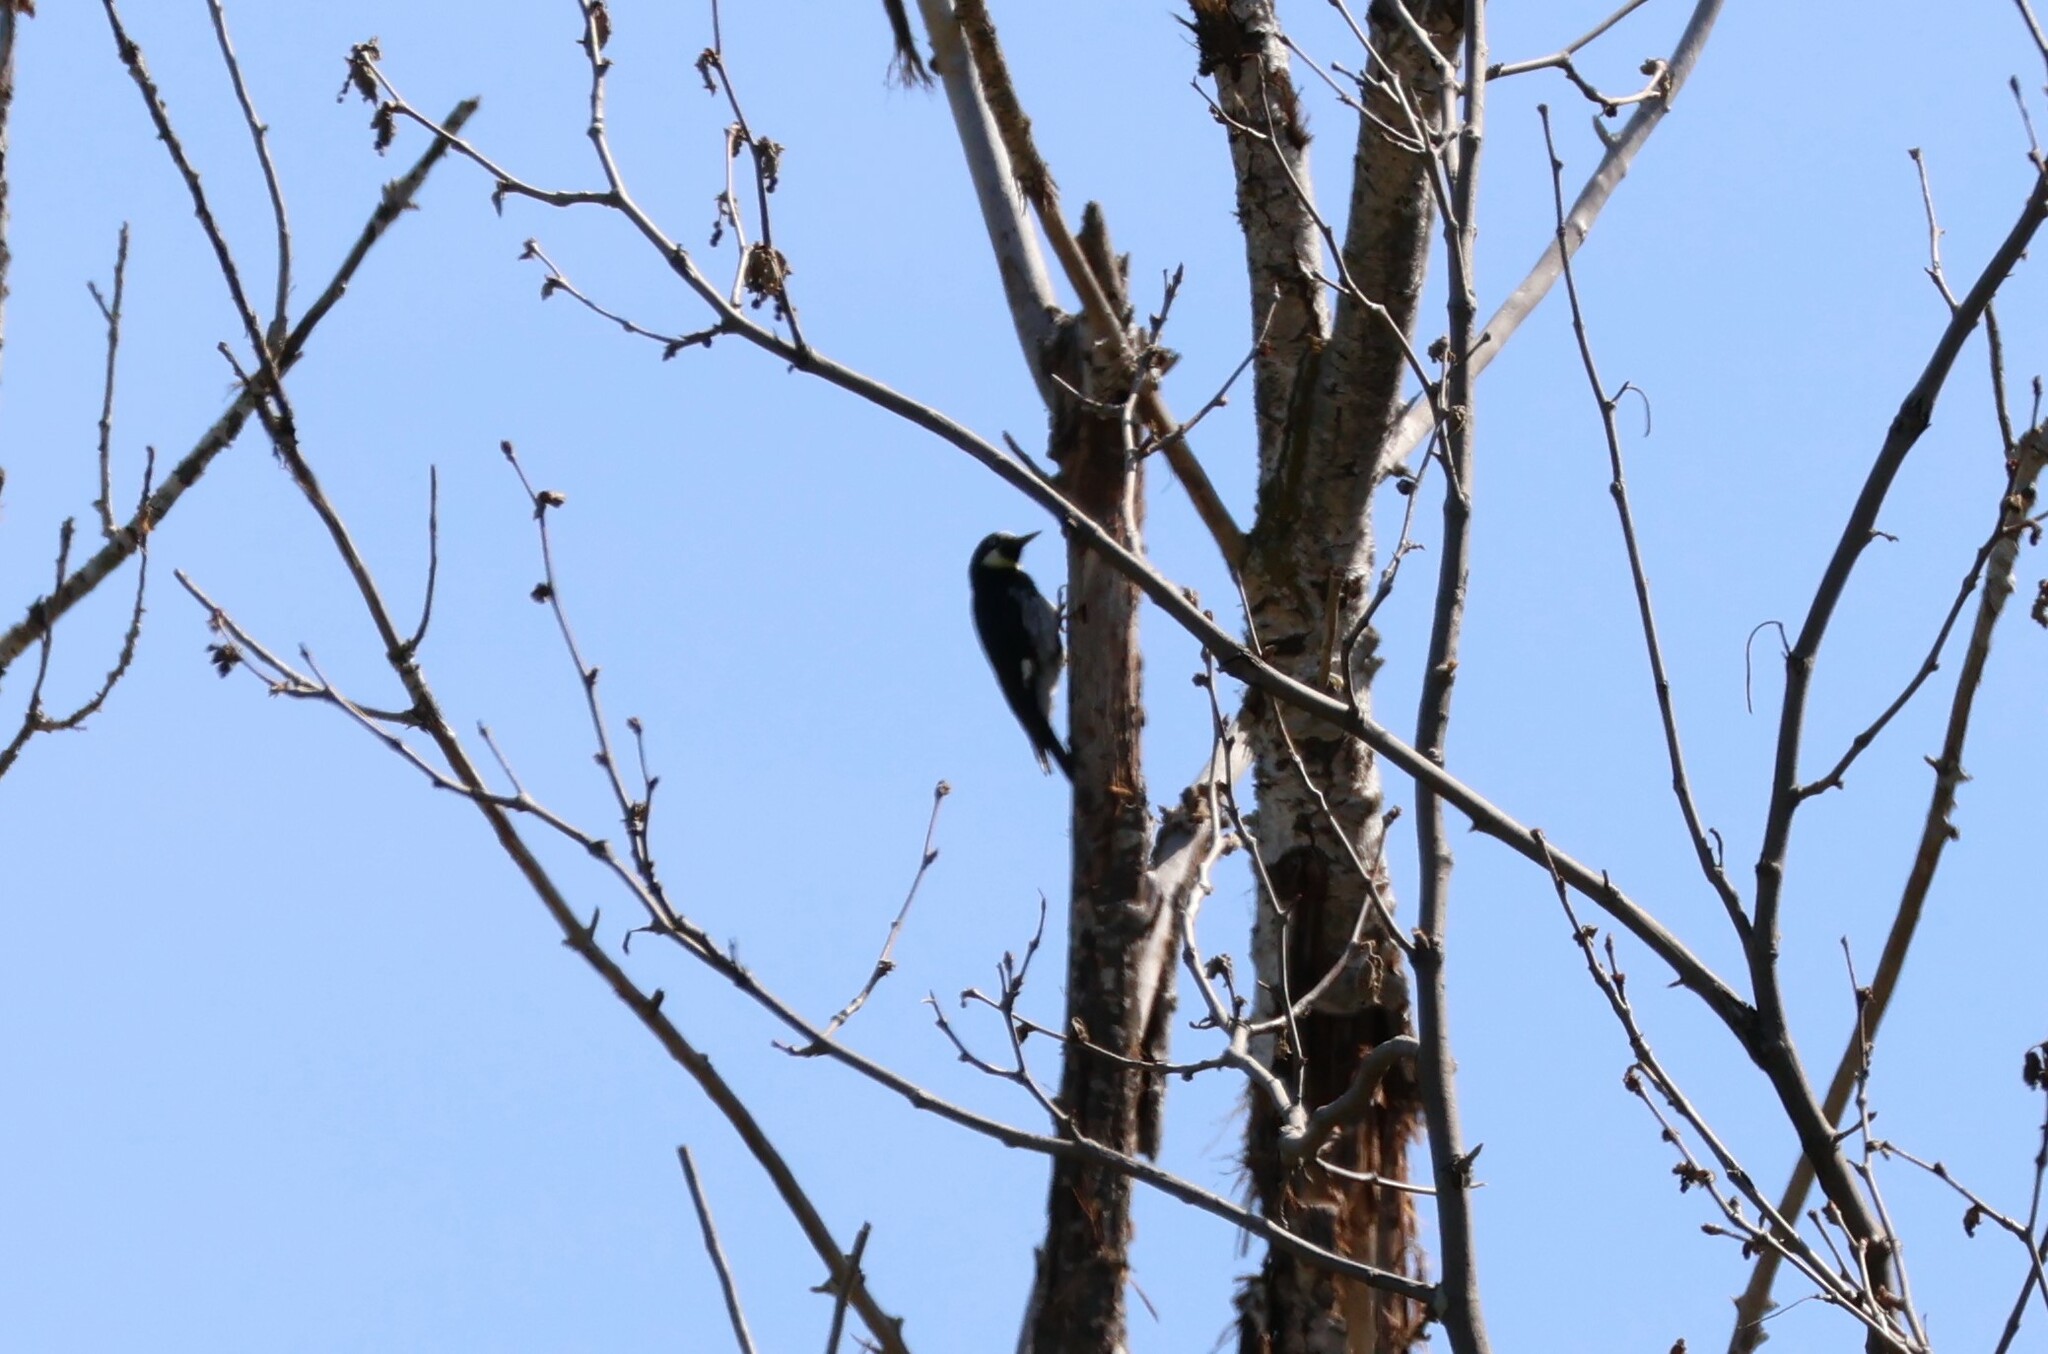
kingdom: Animalia
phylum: Chordata
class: Aves
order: Piciformes
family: Picidae
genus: Melanerpes
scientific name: Melanerpes formicivorus
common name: Acorn woodpecker
